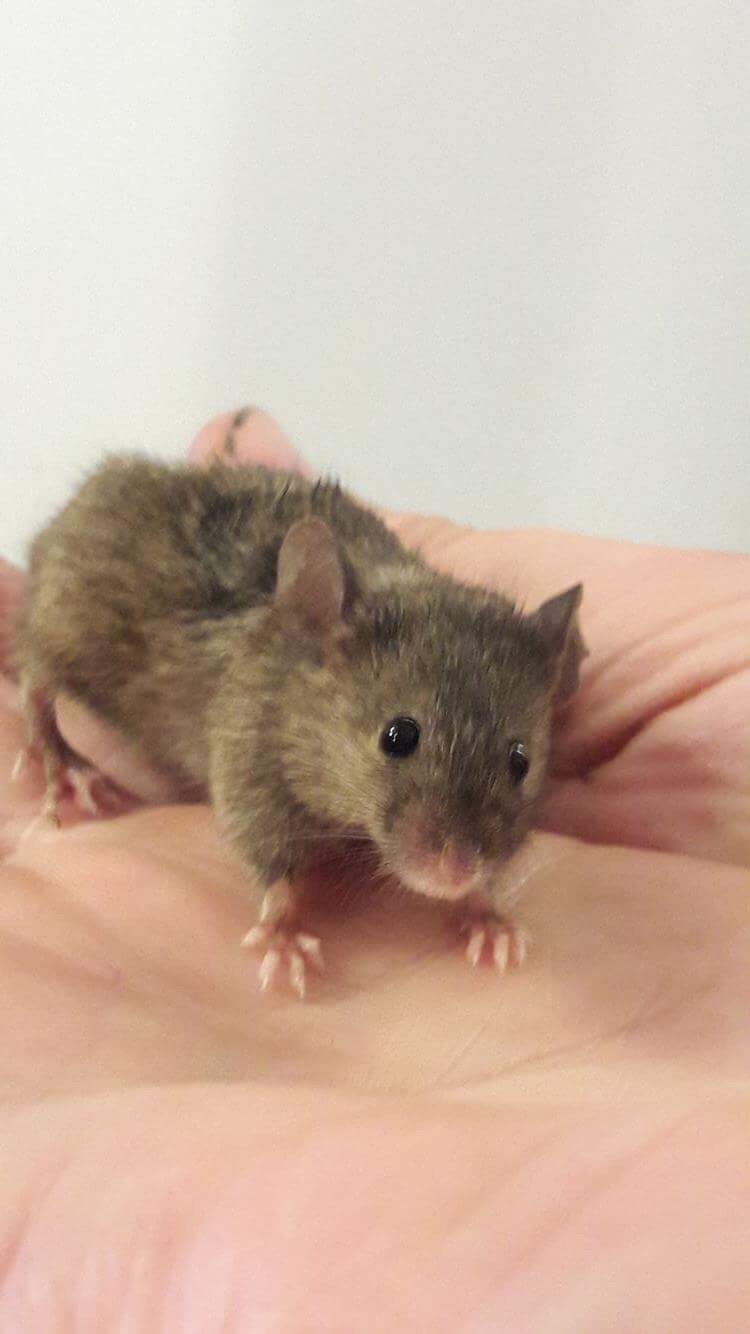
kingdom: Animalia
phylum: Chordata
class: Mammalia
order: Rodentia
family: Muridae
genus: Mus
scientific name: Mus musculus
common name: House mouse
